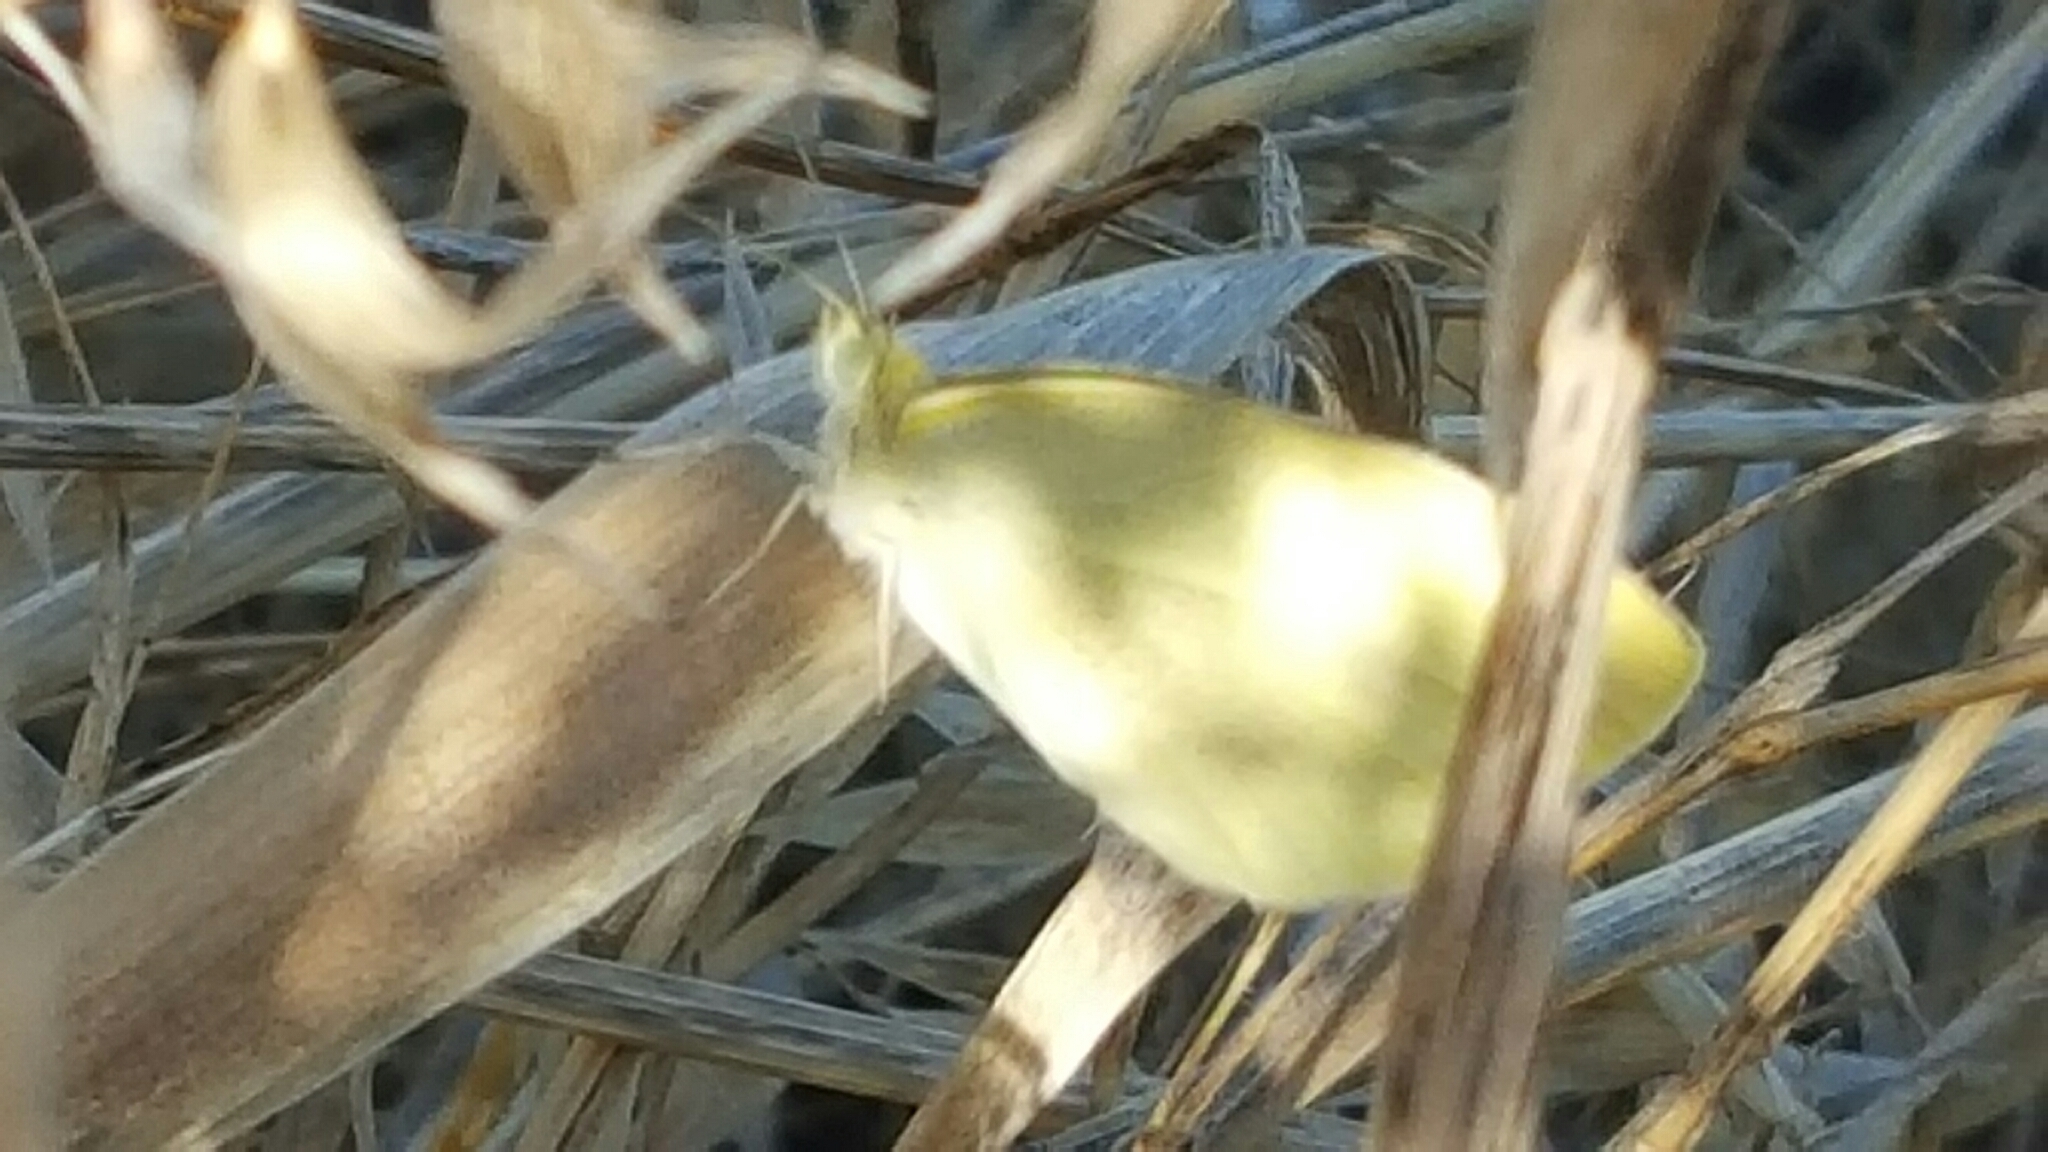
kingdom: Animalia
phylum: Arthropoda
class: Insecta
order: Lepidoptera
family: Pieridae
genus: Pieris
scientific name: Pieris rapae
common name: Small white
